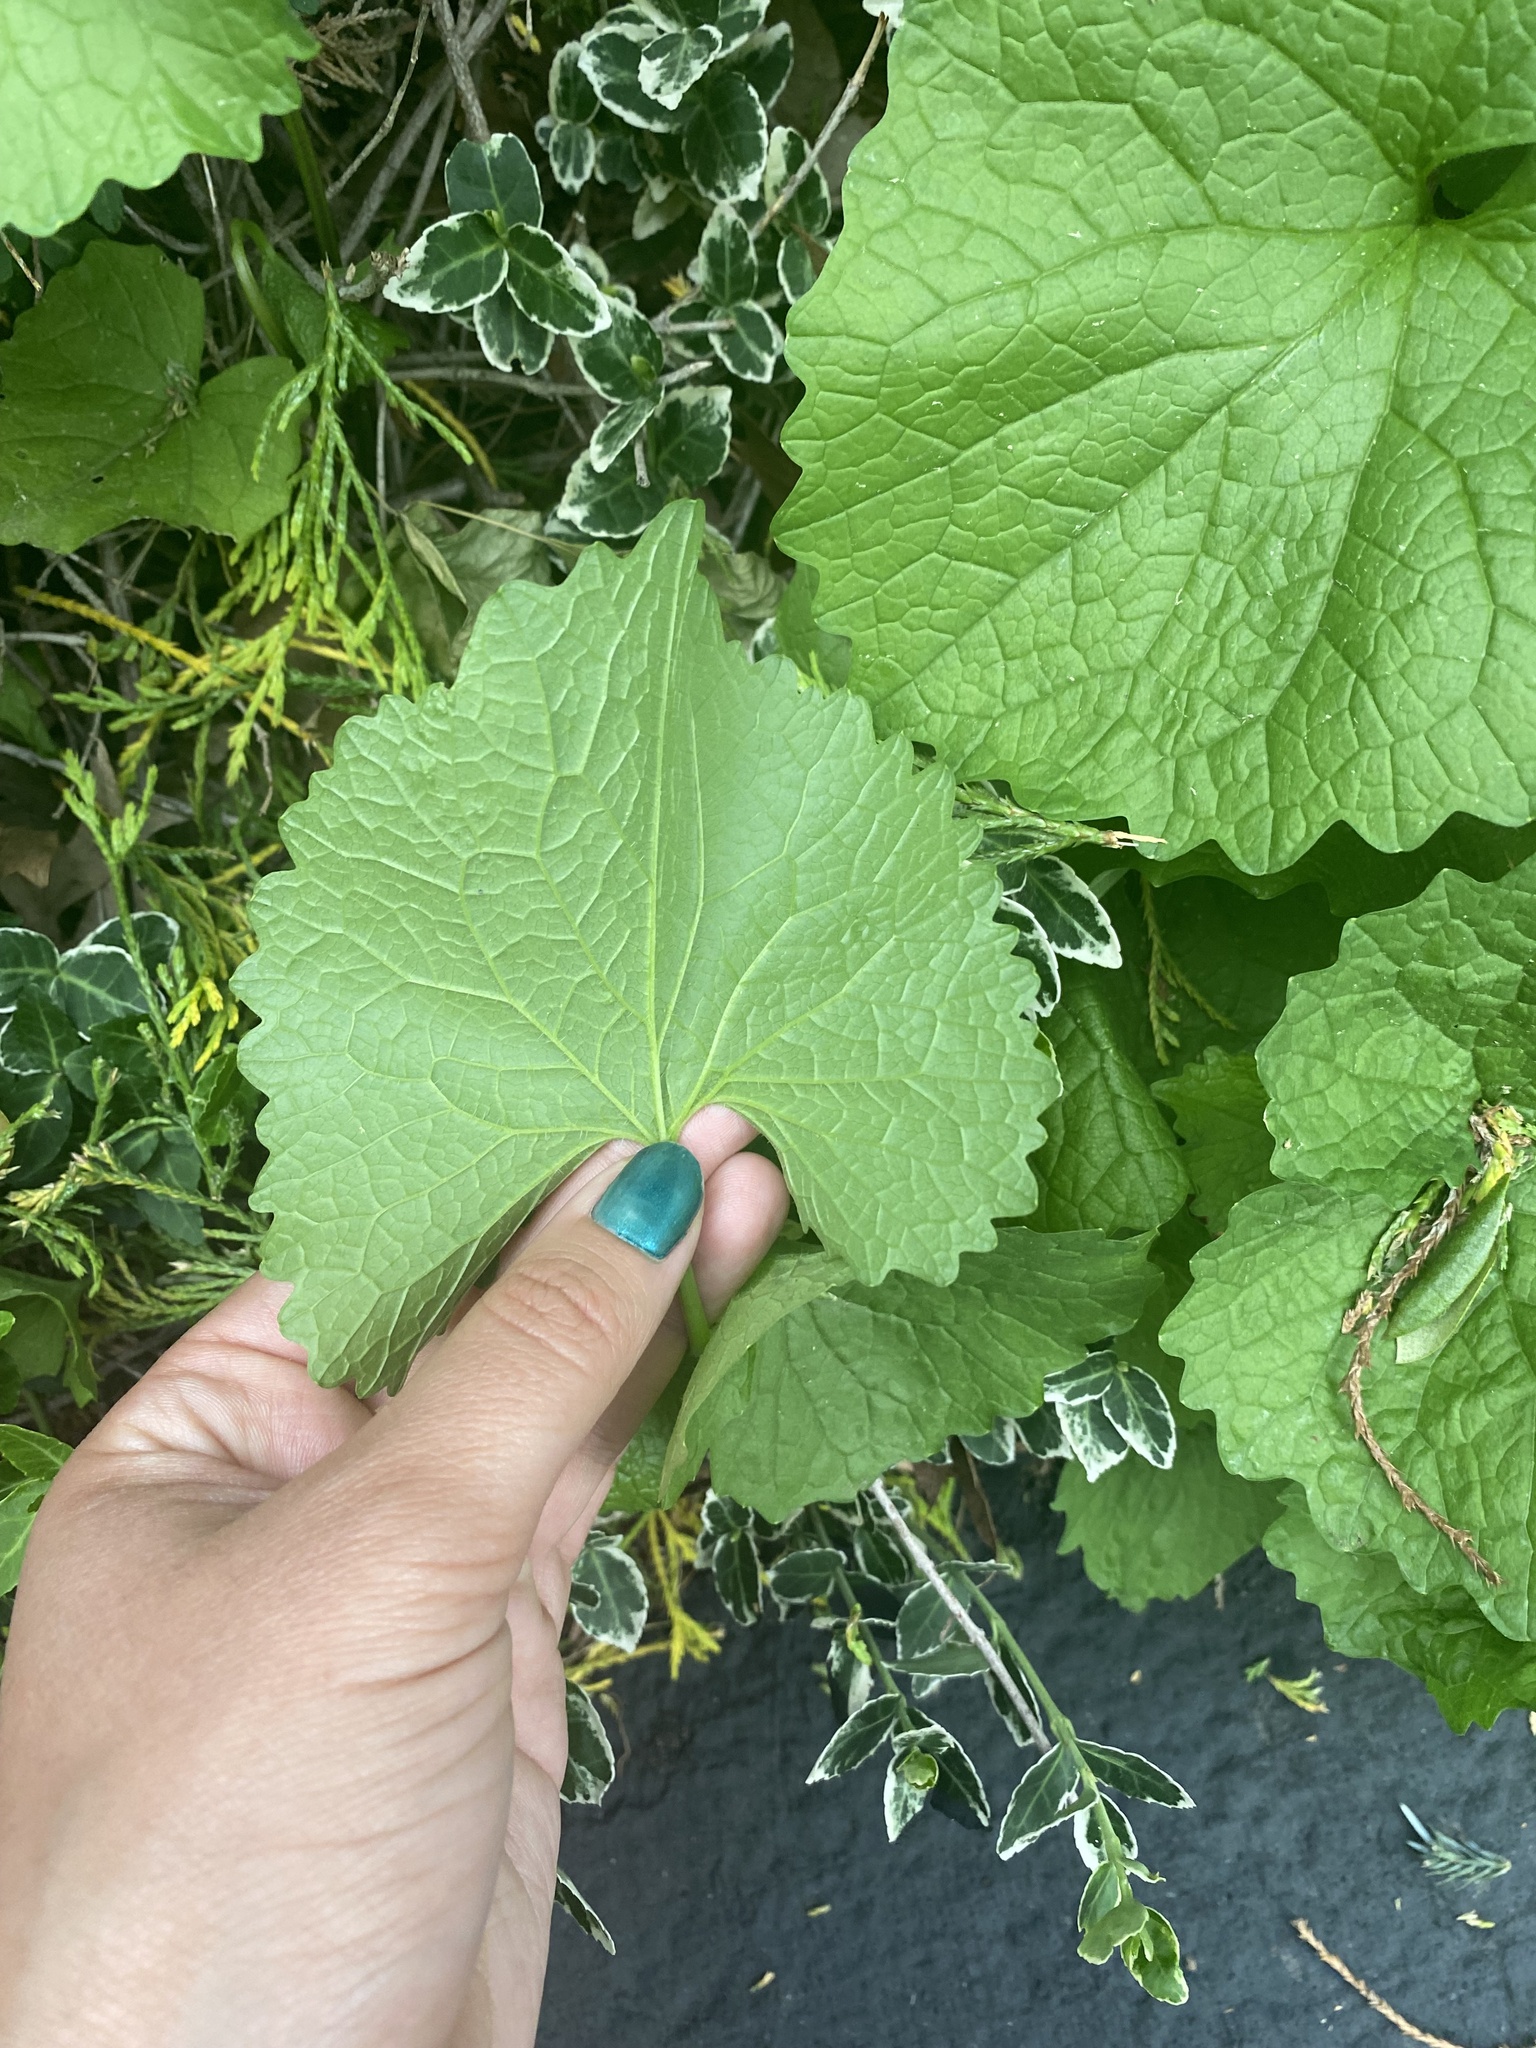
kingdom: Plantae
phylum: Tracheophyta
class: Magnoliopsida
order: Brassicales
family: Brassicaceae
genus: Alliaria
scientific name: Alliaria petiolata
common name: Garlic mustard
